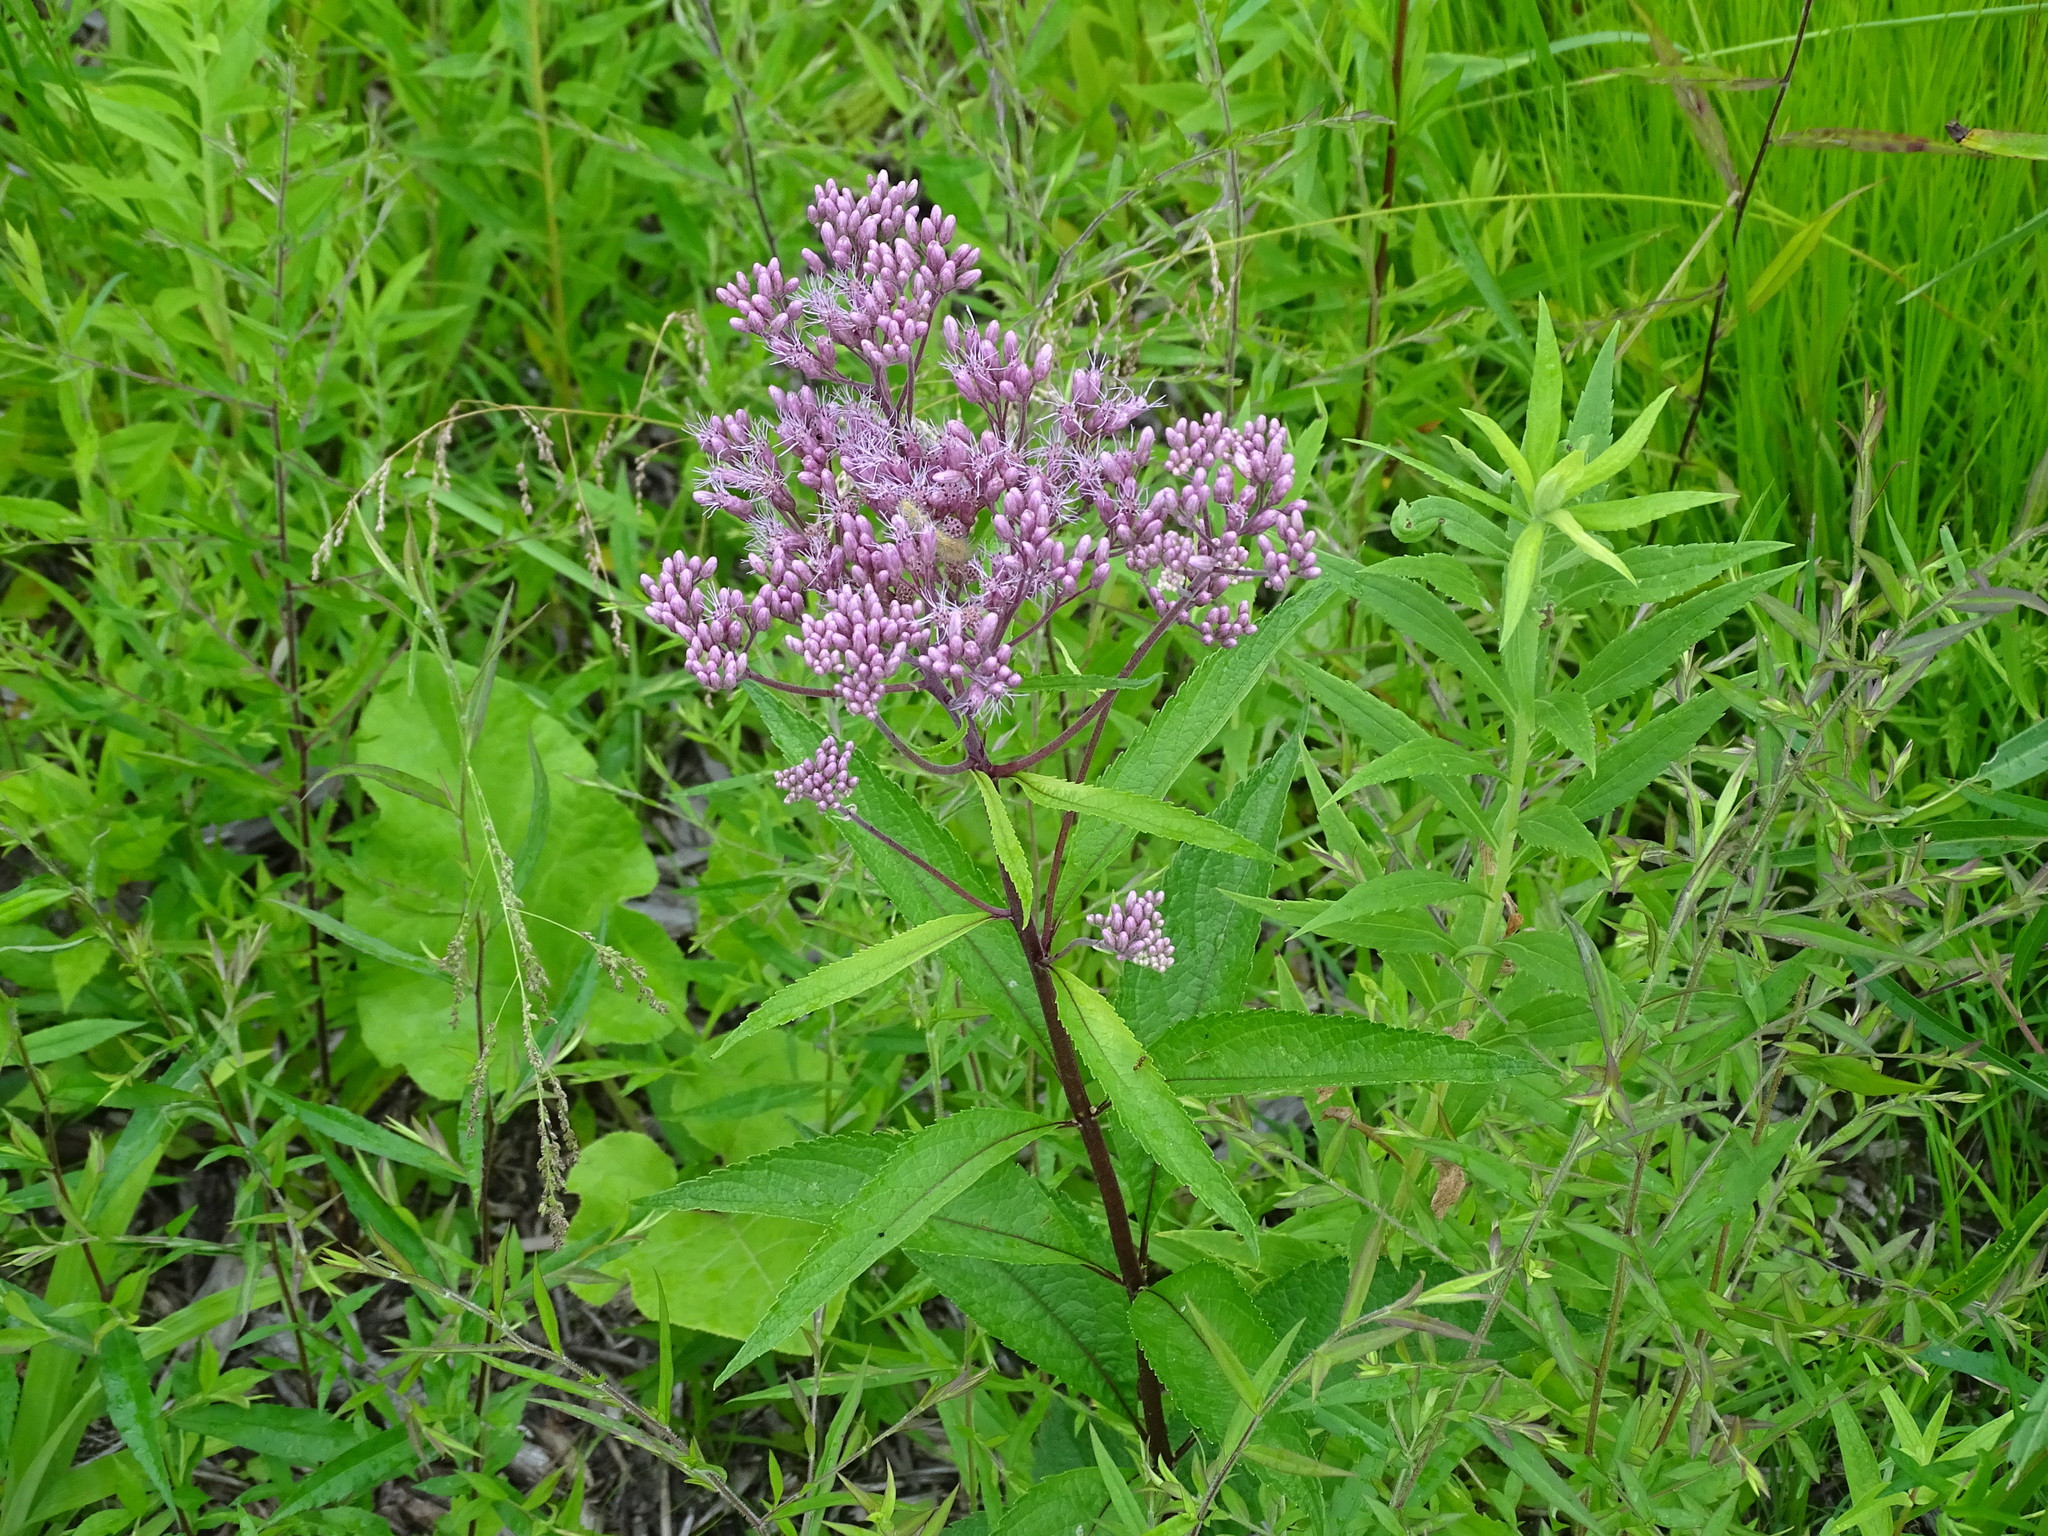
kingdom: Plantae
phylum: Tracheophyta
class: Magnoliopsida
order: Asterales
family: Asteraceae
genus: Eutrochium
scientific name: Eutrochium maculatum
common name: Spotted joe pye weed
